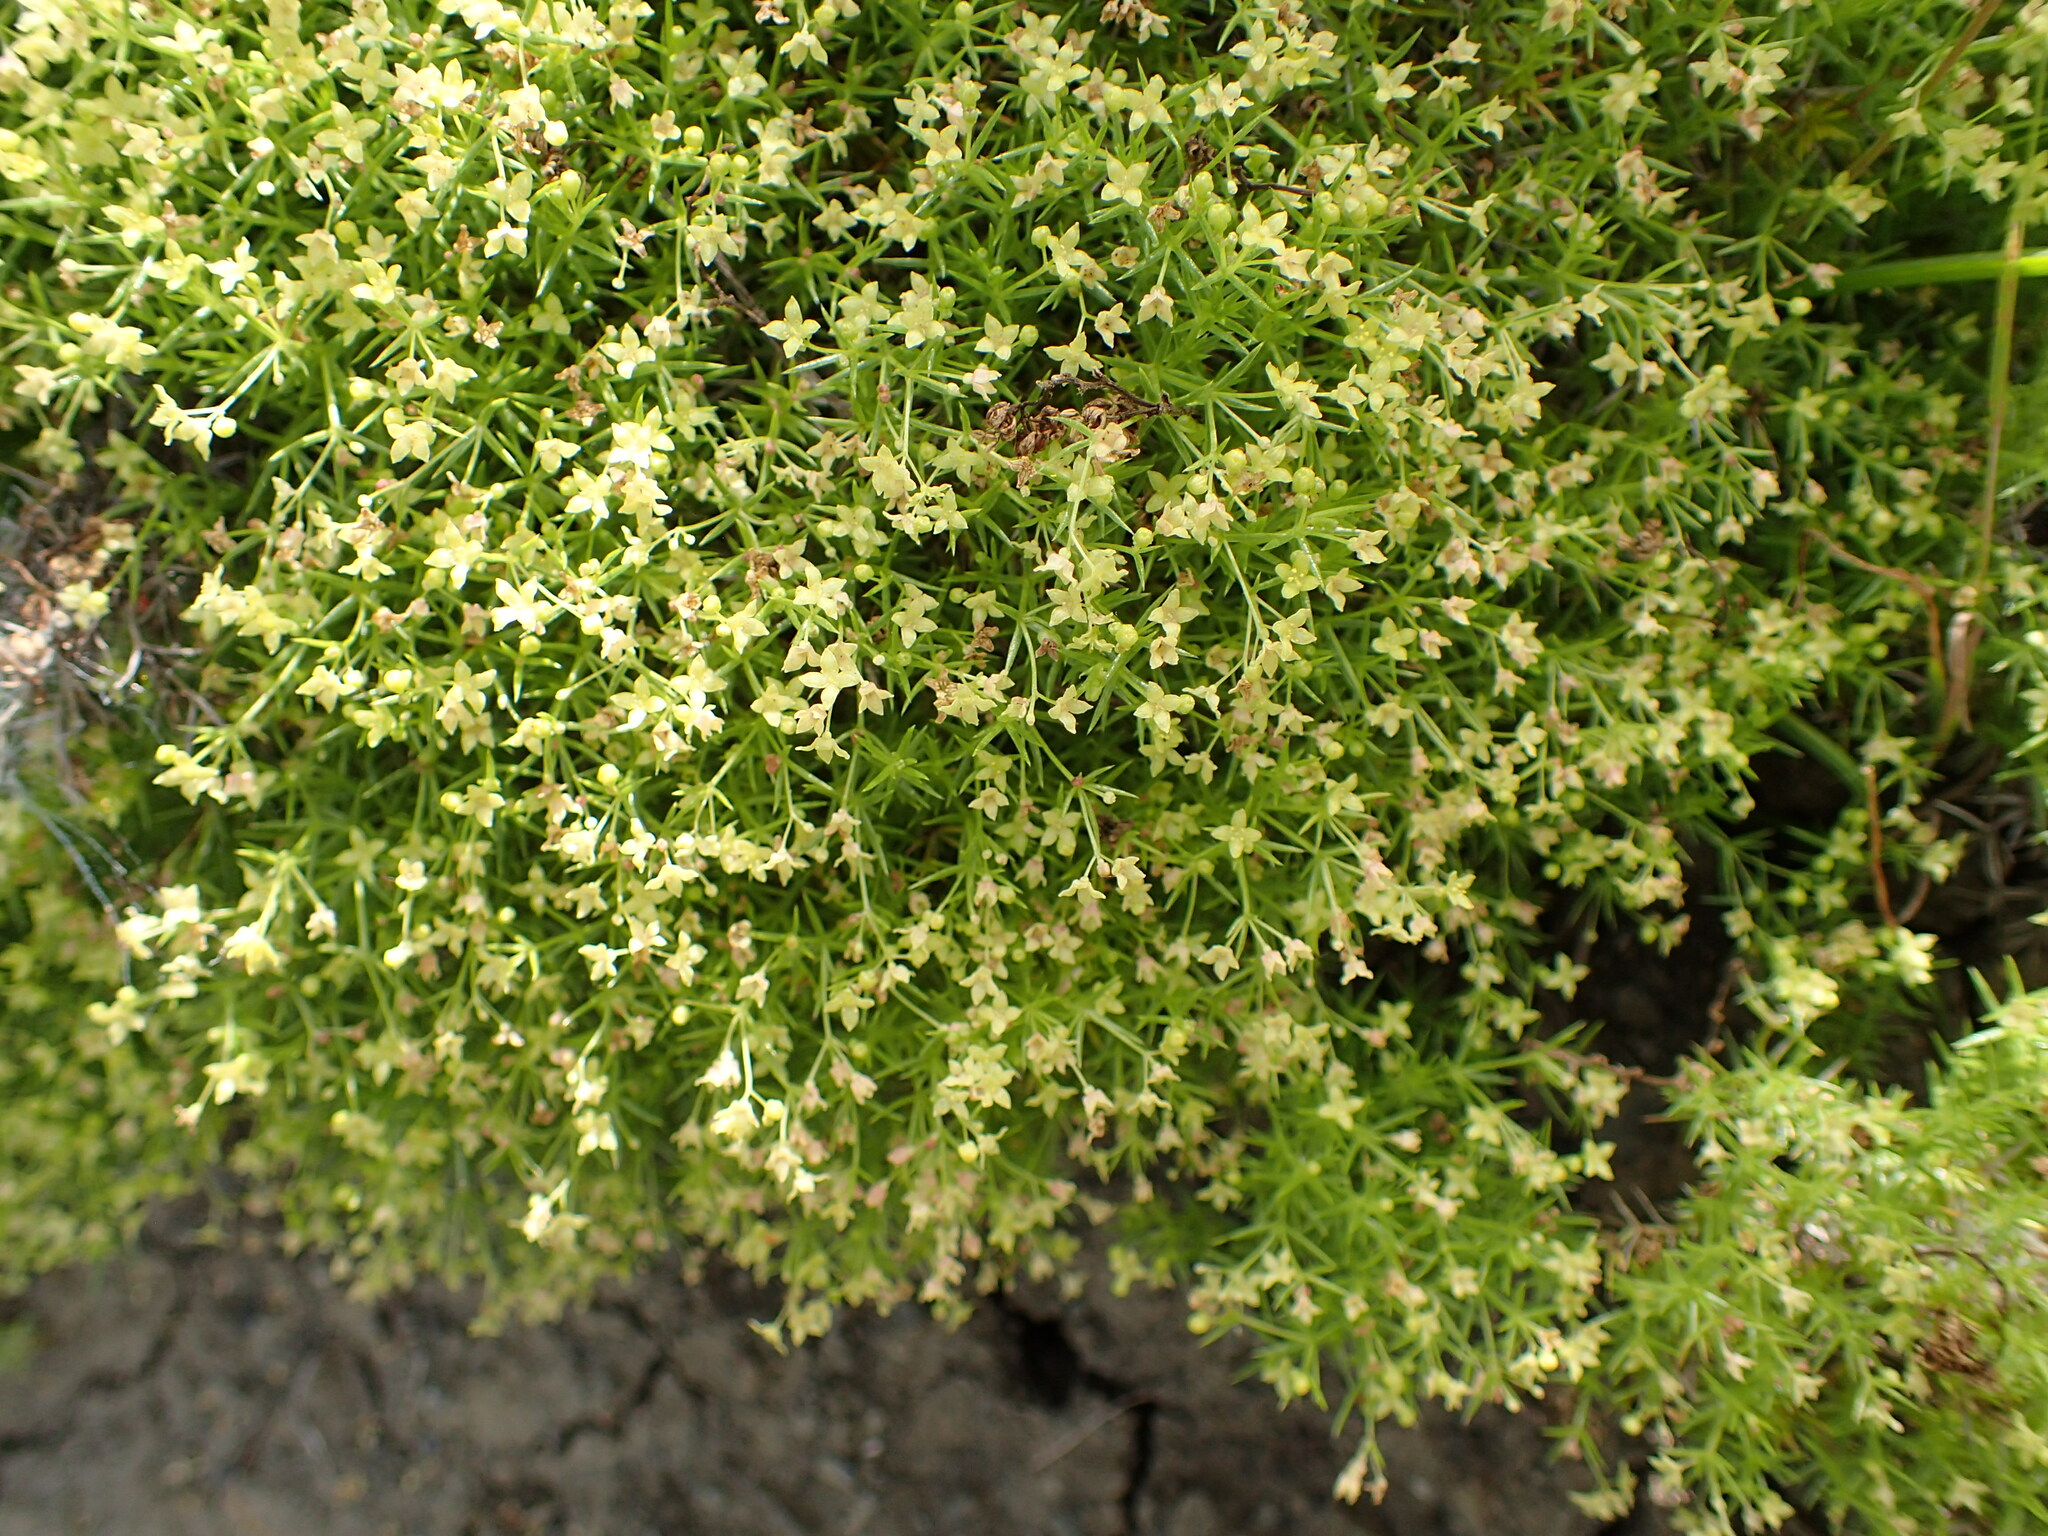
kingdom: Plantae
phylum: Tracheophyta
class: Magnoliopsida
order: Gentianales
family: Rubiaceae
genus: Galium
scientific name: Galium andrewsii
